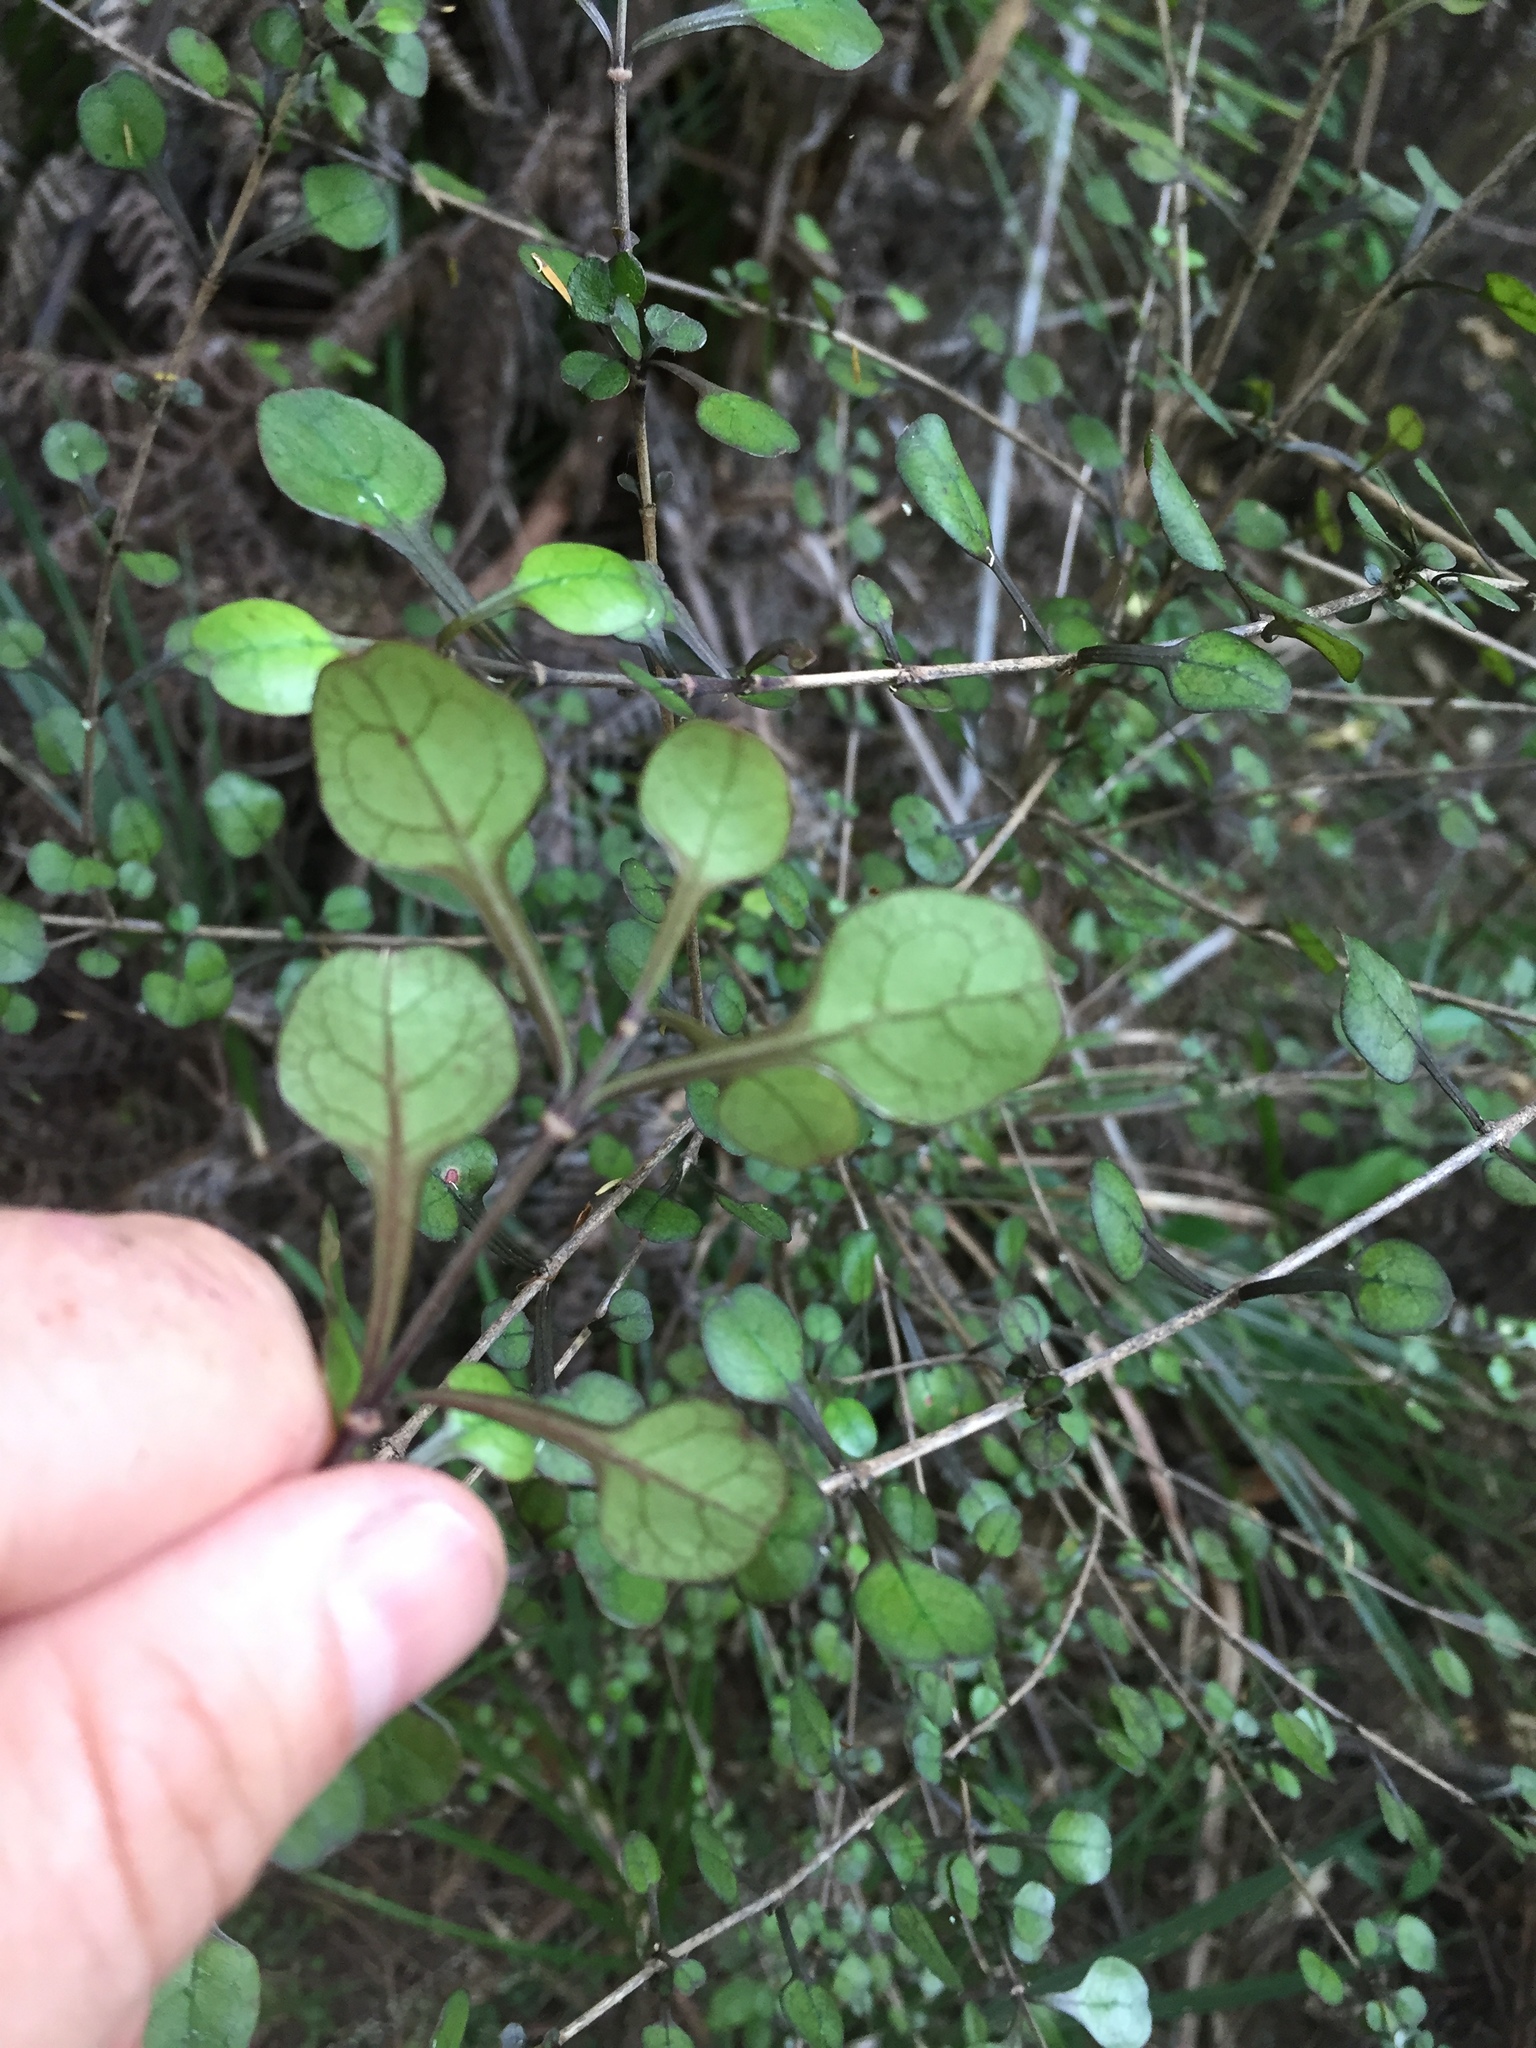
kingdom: Plantae
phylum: Tracheophyta
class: Magnoliopsida
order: Gentianales
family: Rubiaceae
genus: Coprosma
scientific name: Coprosma spathulata
